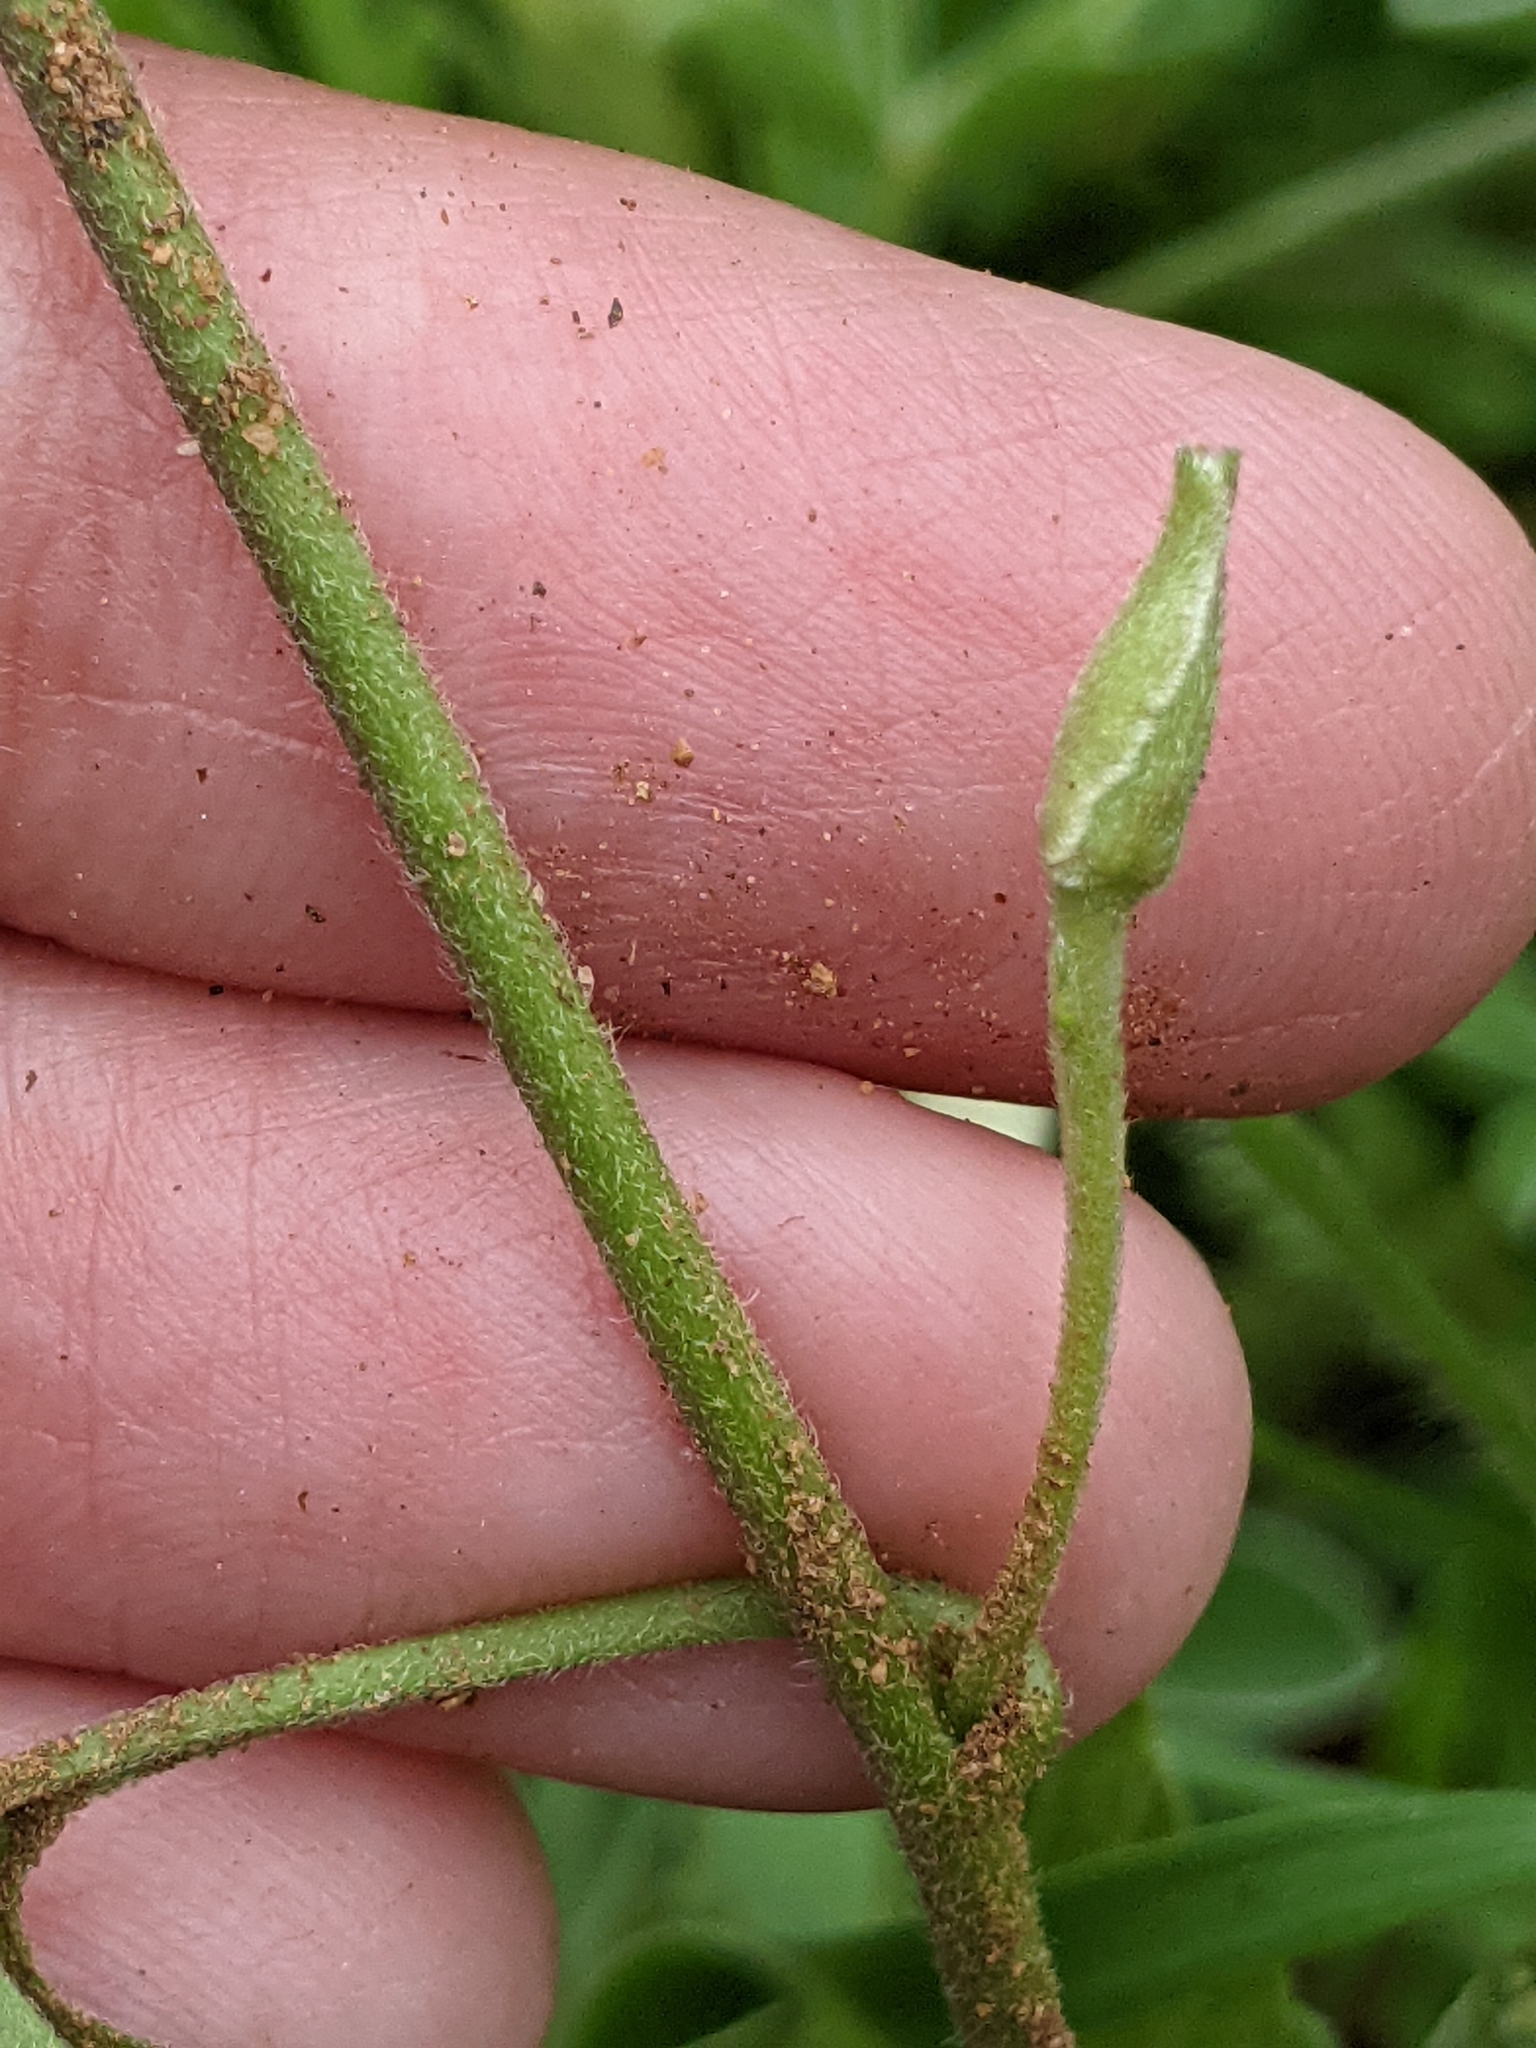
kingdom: Plantae
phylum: Tracheophyta
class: Magnoliopsida
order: Solanales
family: Convolvulaceae
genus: Convolvulus
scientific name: Convolvulus equitans
